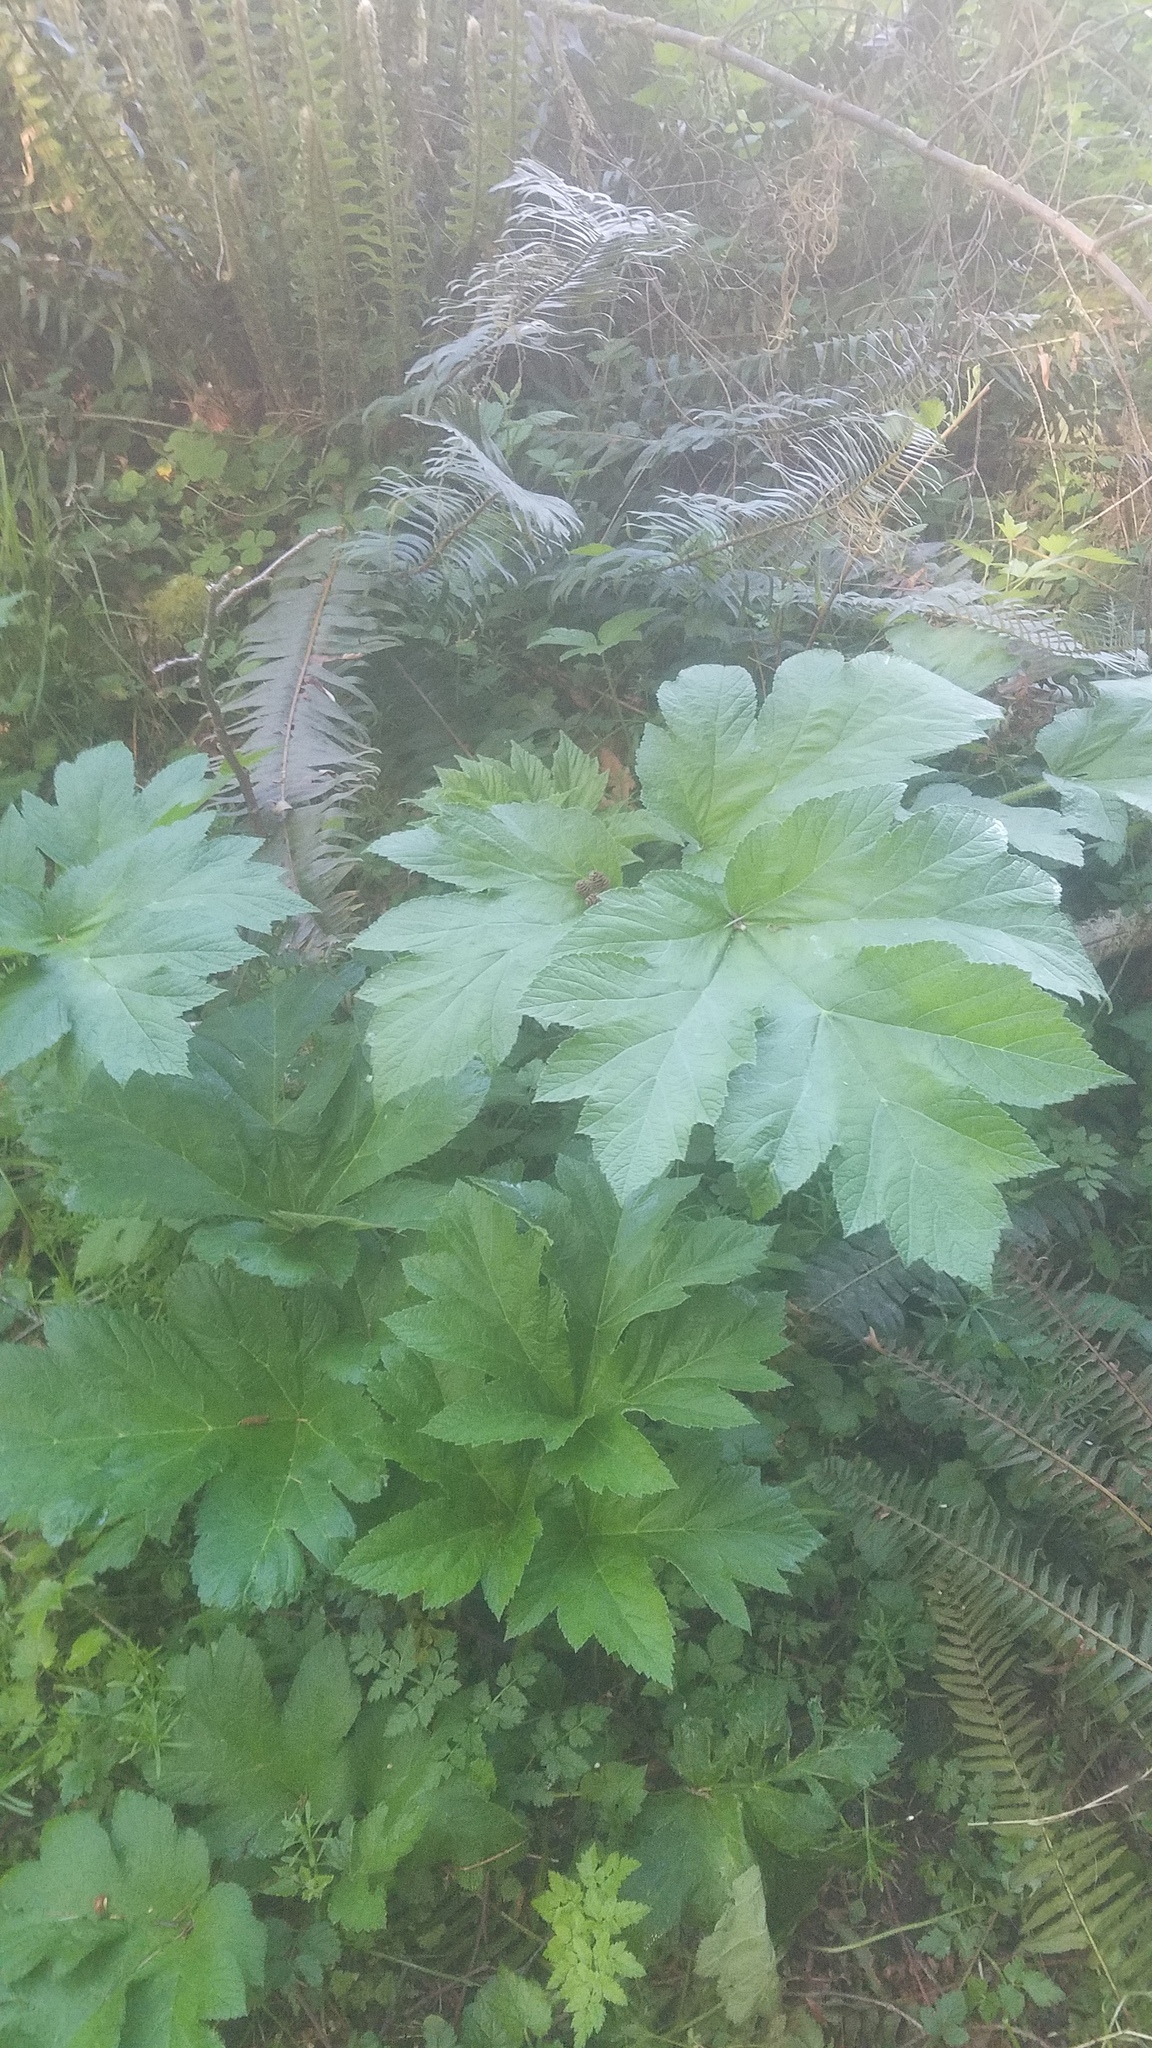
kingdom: Plantae
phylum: Tracheophyta
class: Magnoliopsida
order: Apiales
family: Apiaceae
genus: Heracleum
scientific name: Heracleum maximum
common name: American cow parsnip
